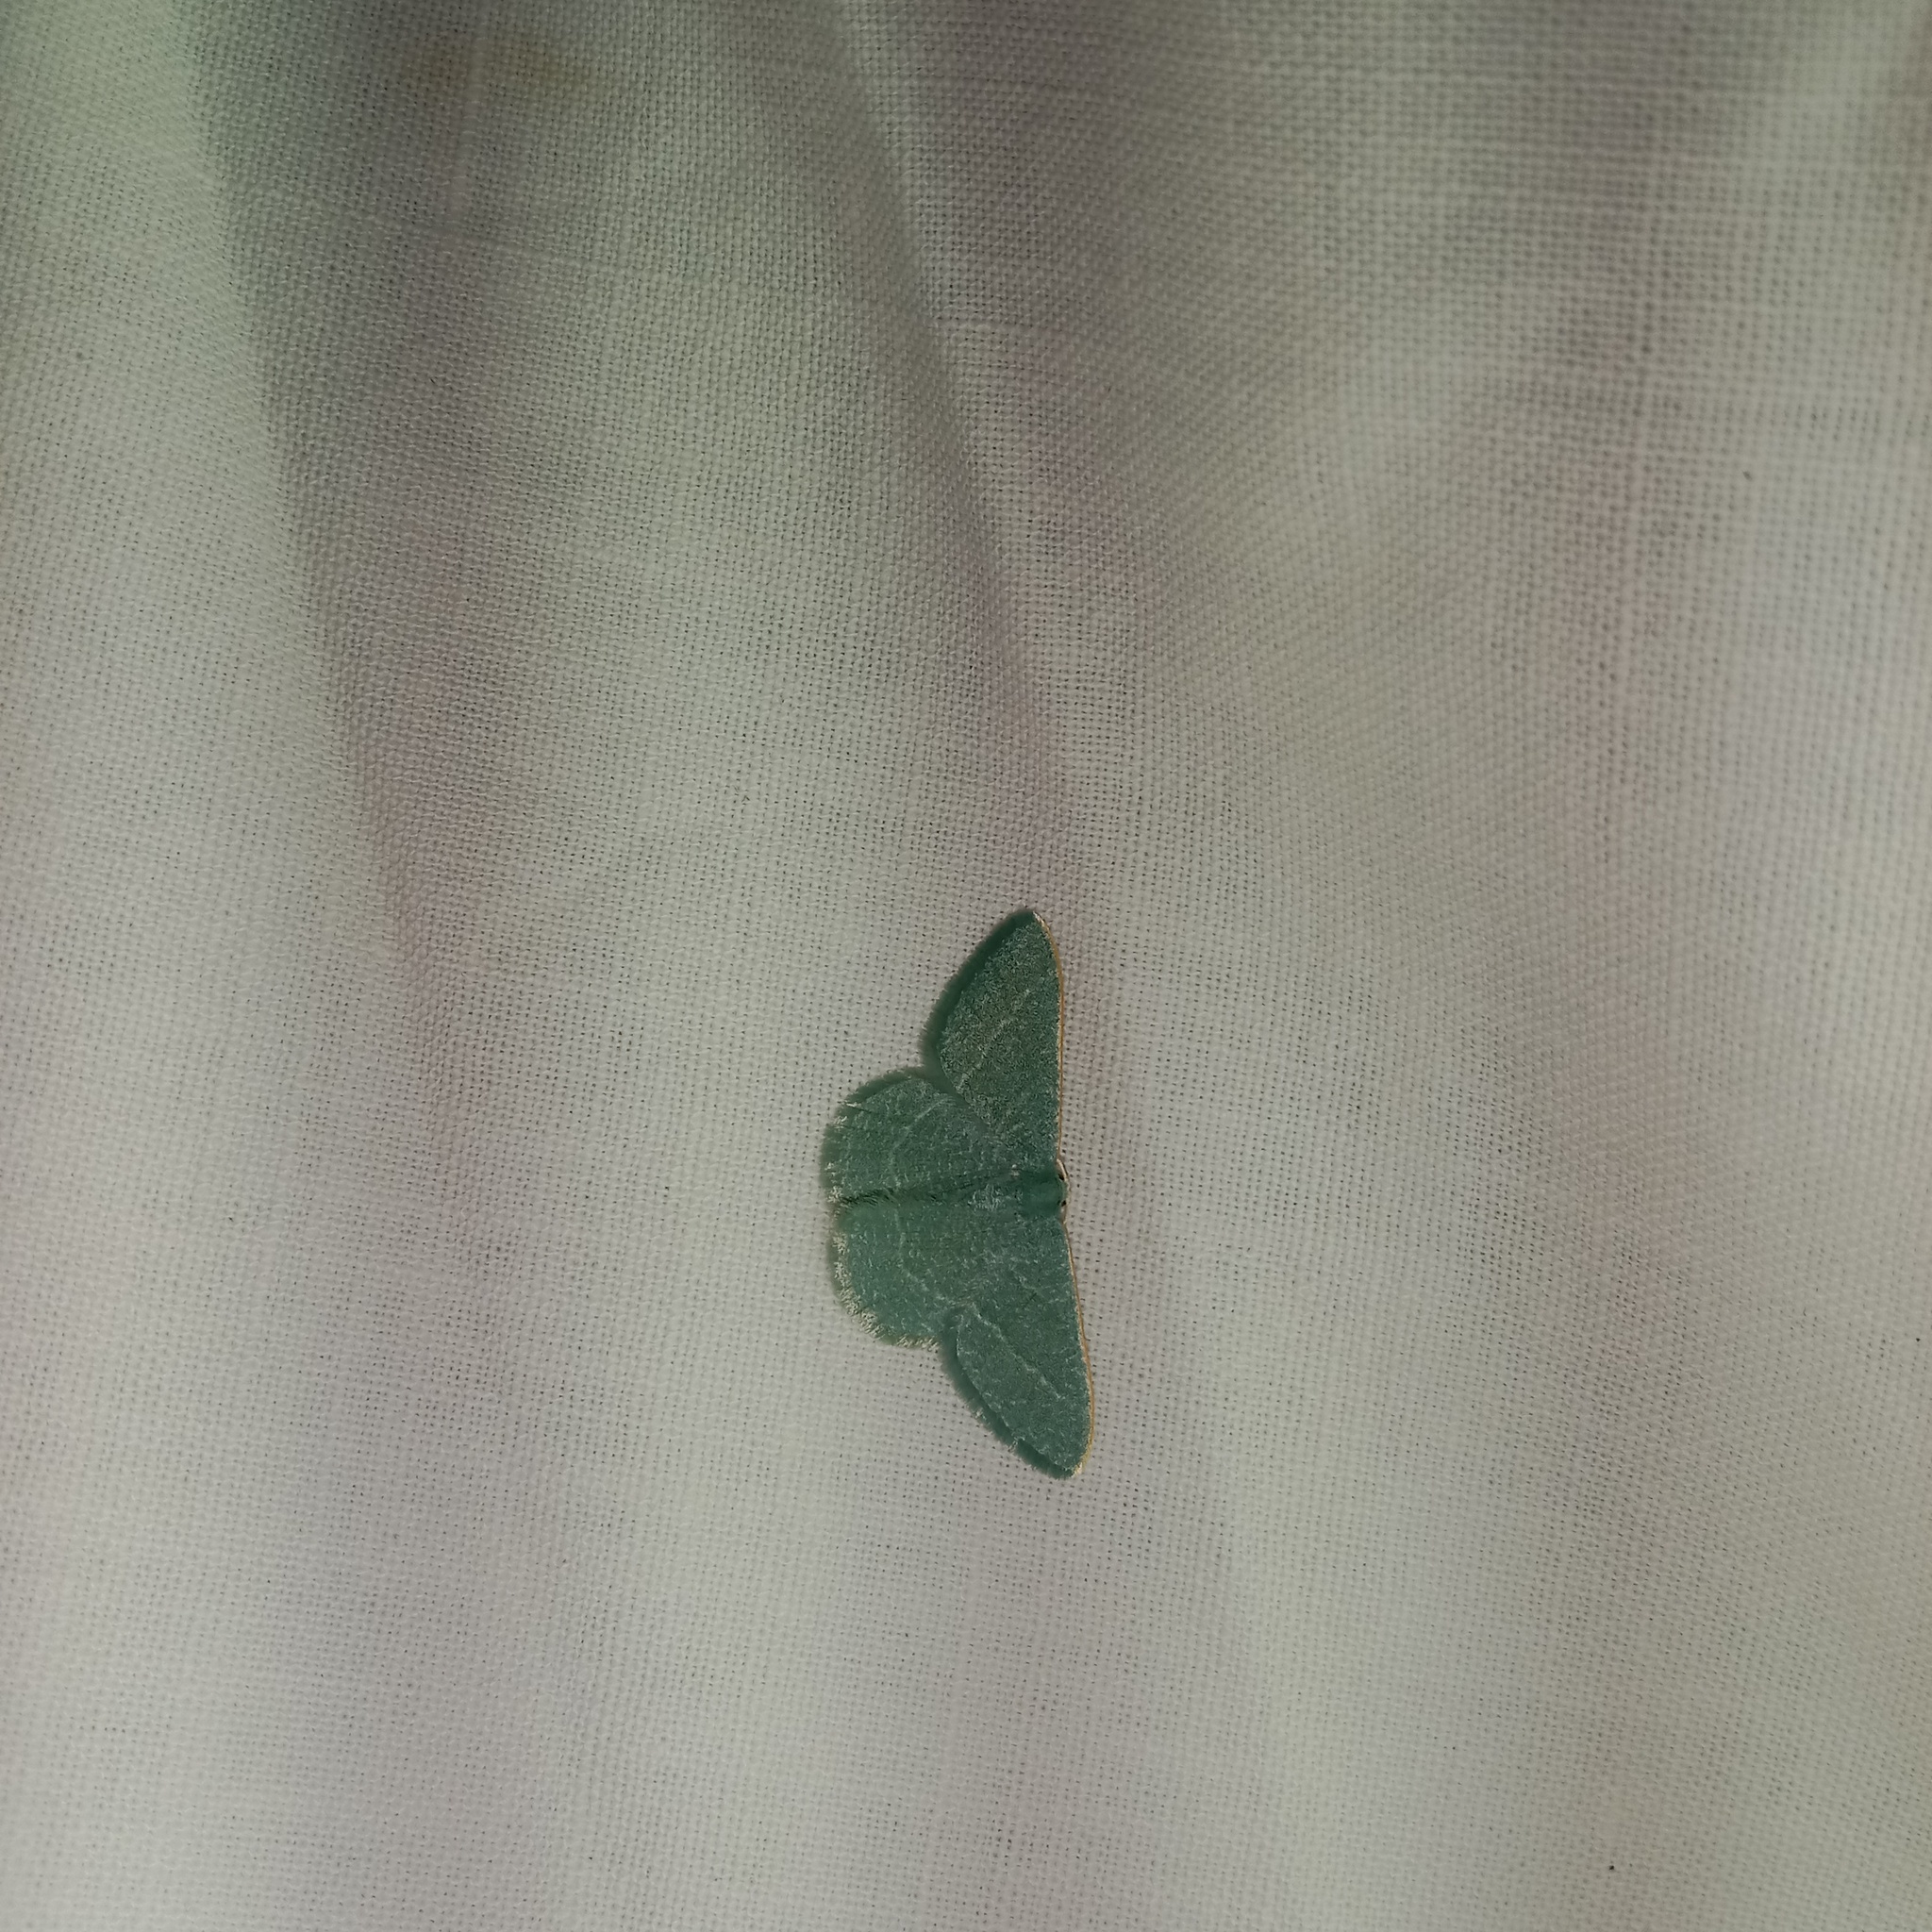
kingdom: Animalia
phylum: Arthropoda
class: Insecta
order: Lepidoptera
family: Geometridae
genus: Chlorissa
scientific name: Chlorissa etruscaria
